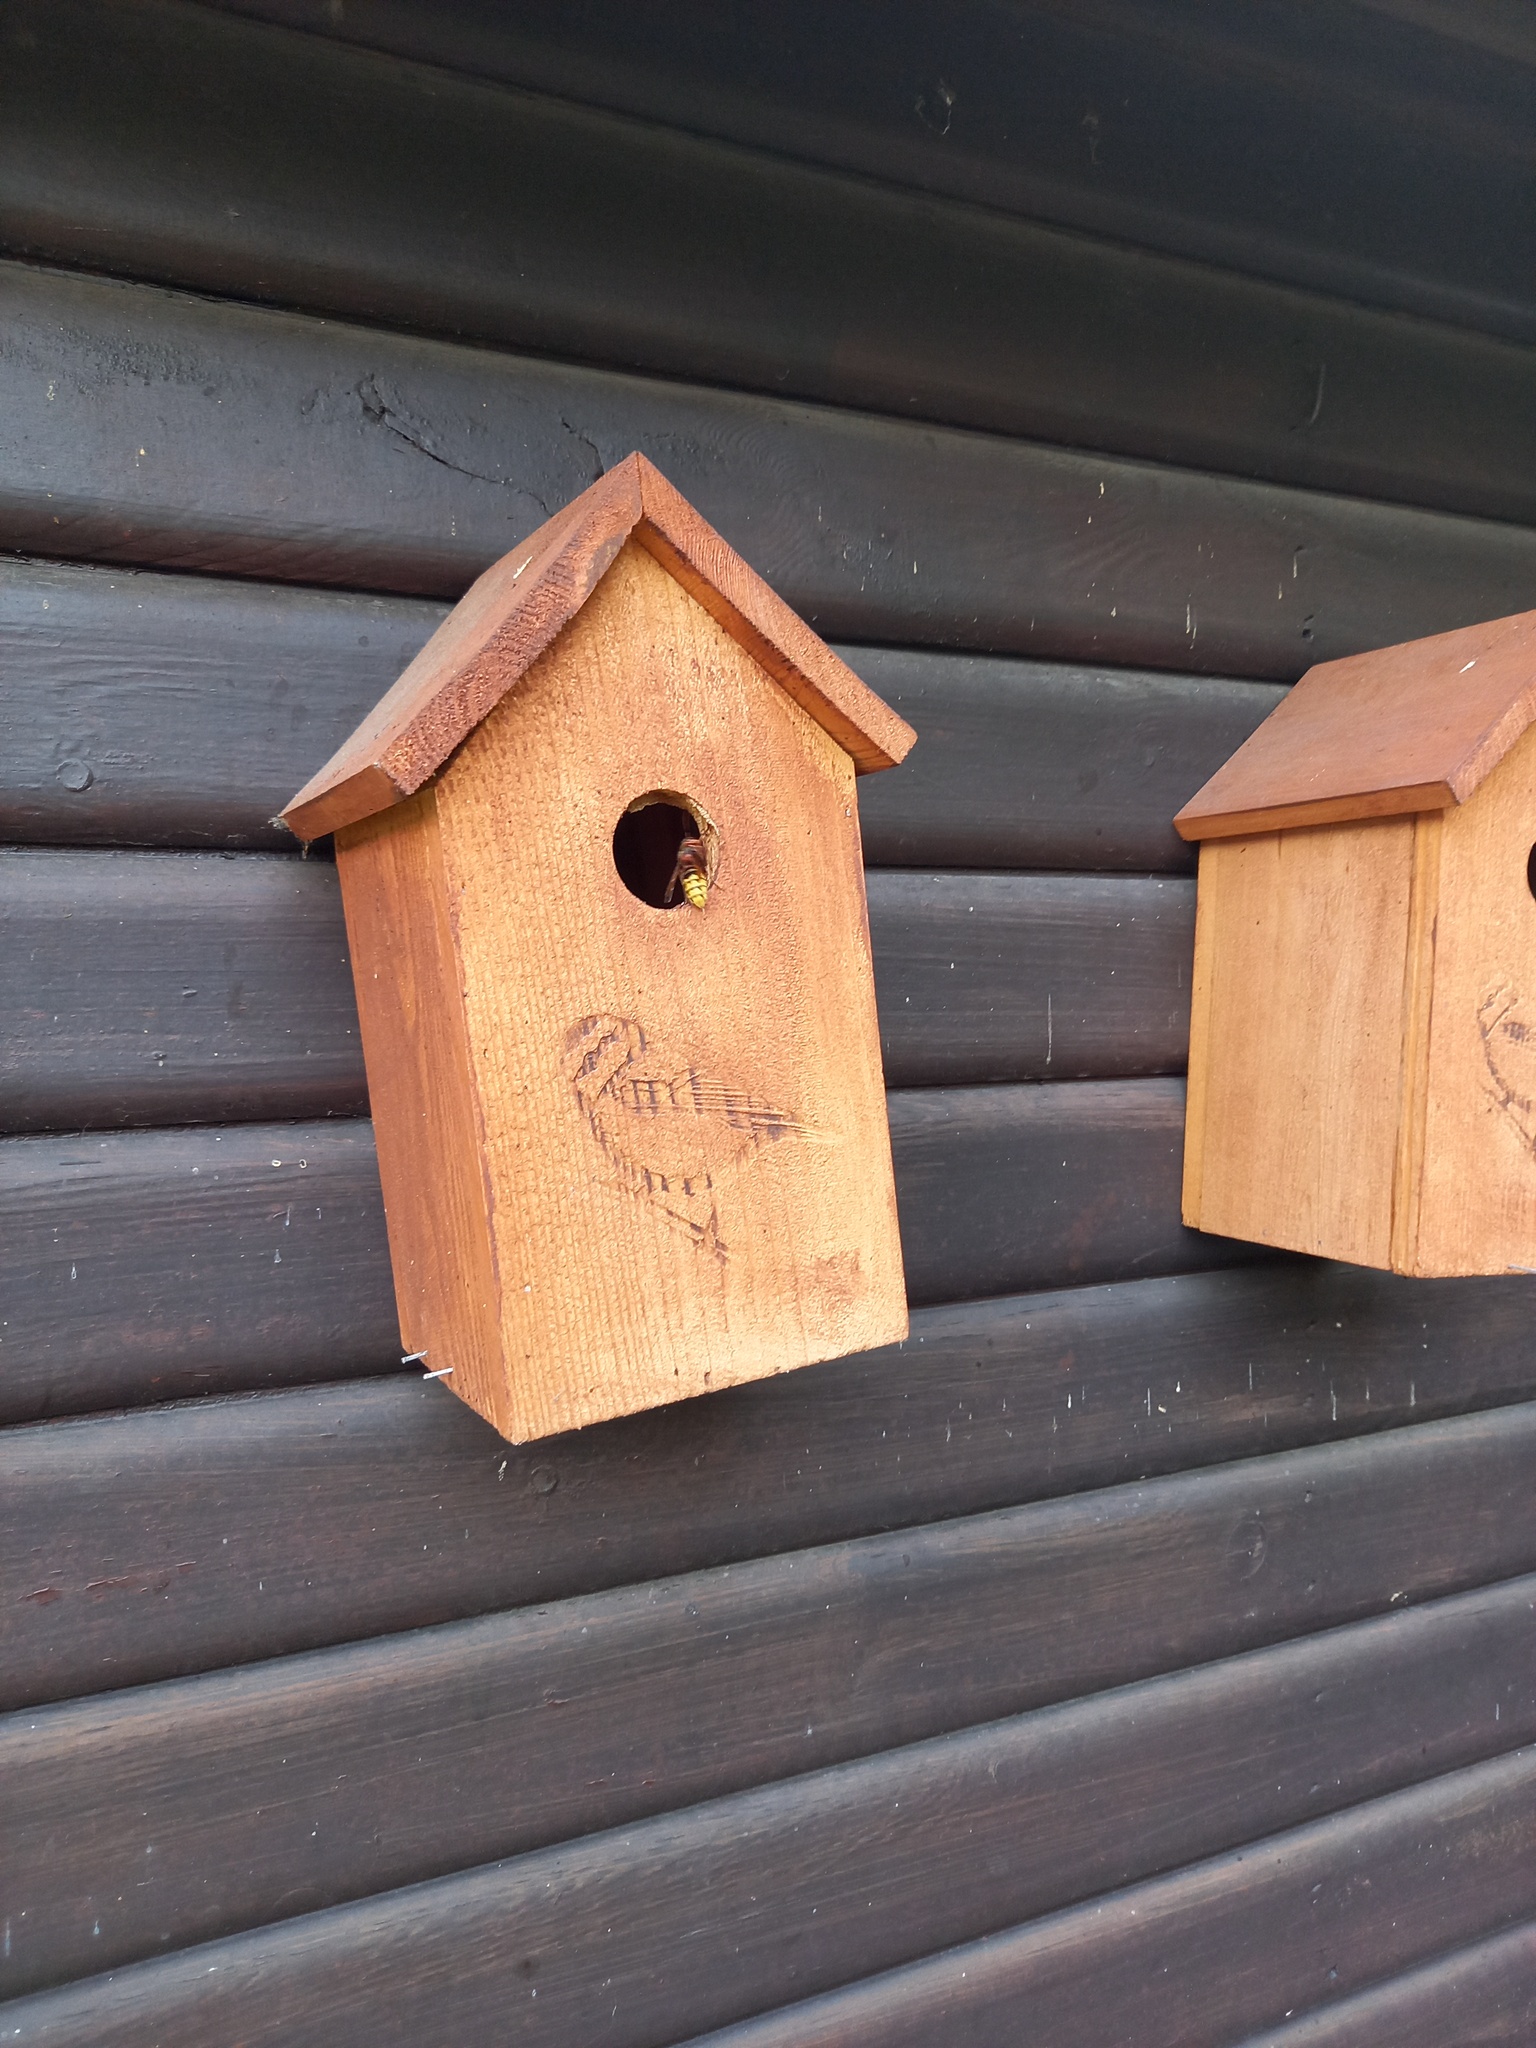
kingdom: Animalia
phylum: Arthropoda
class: Insecta
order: Hymenoptera
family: Vespidae
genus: Vespa
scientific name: Vespa crabro
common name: Hornet
